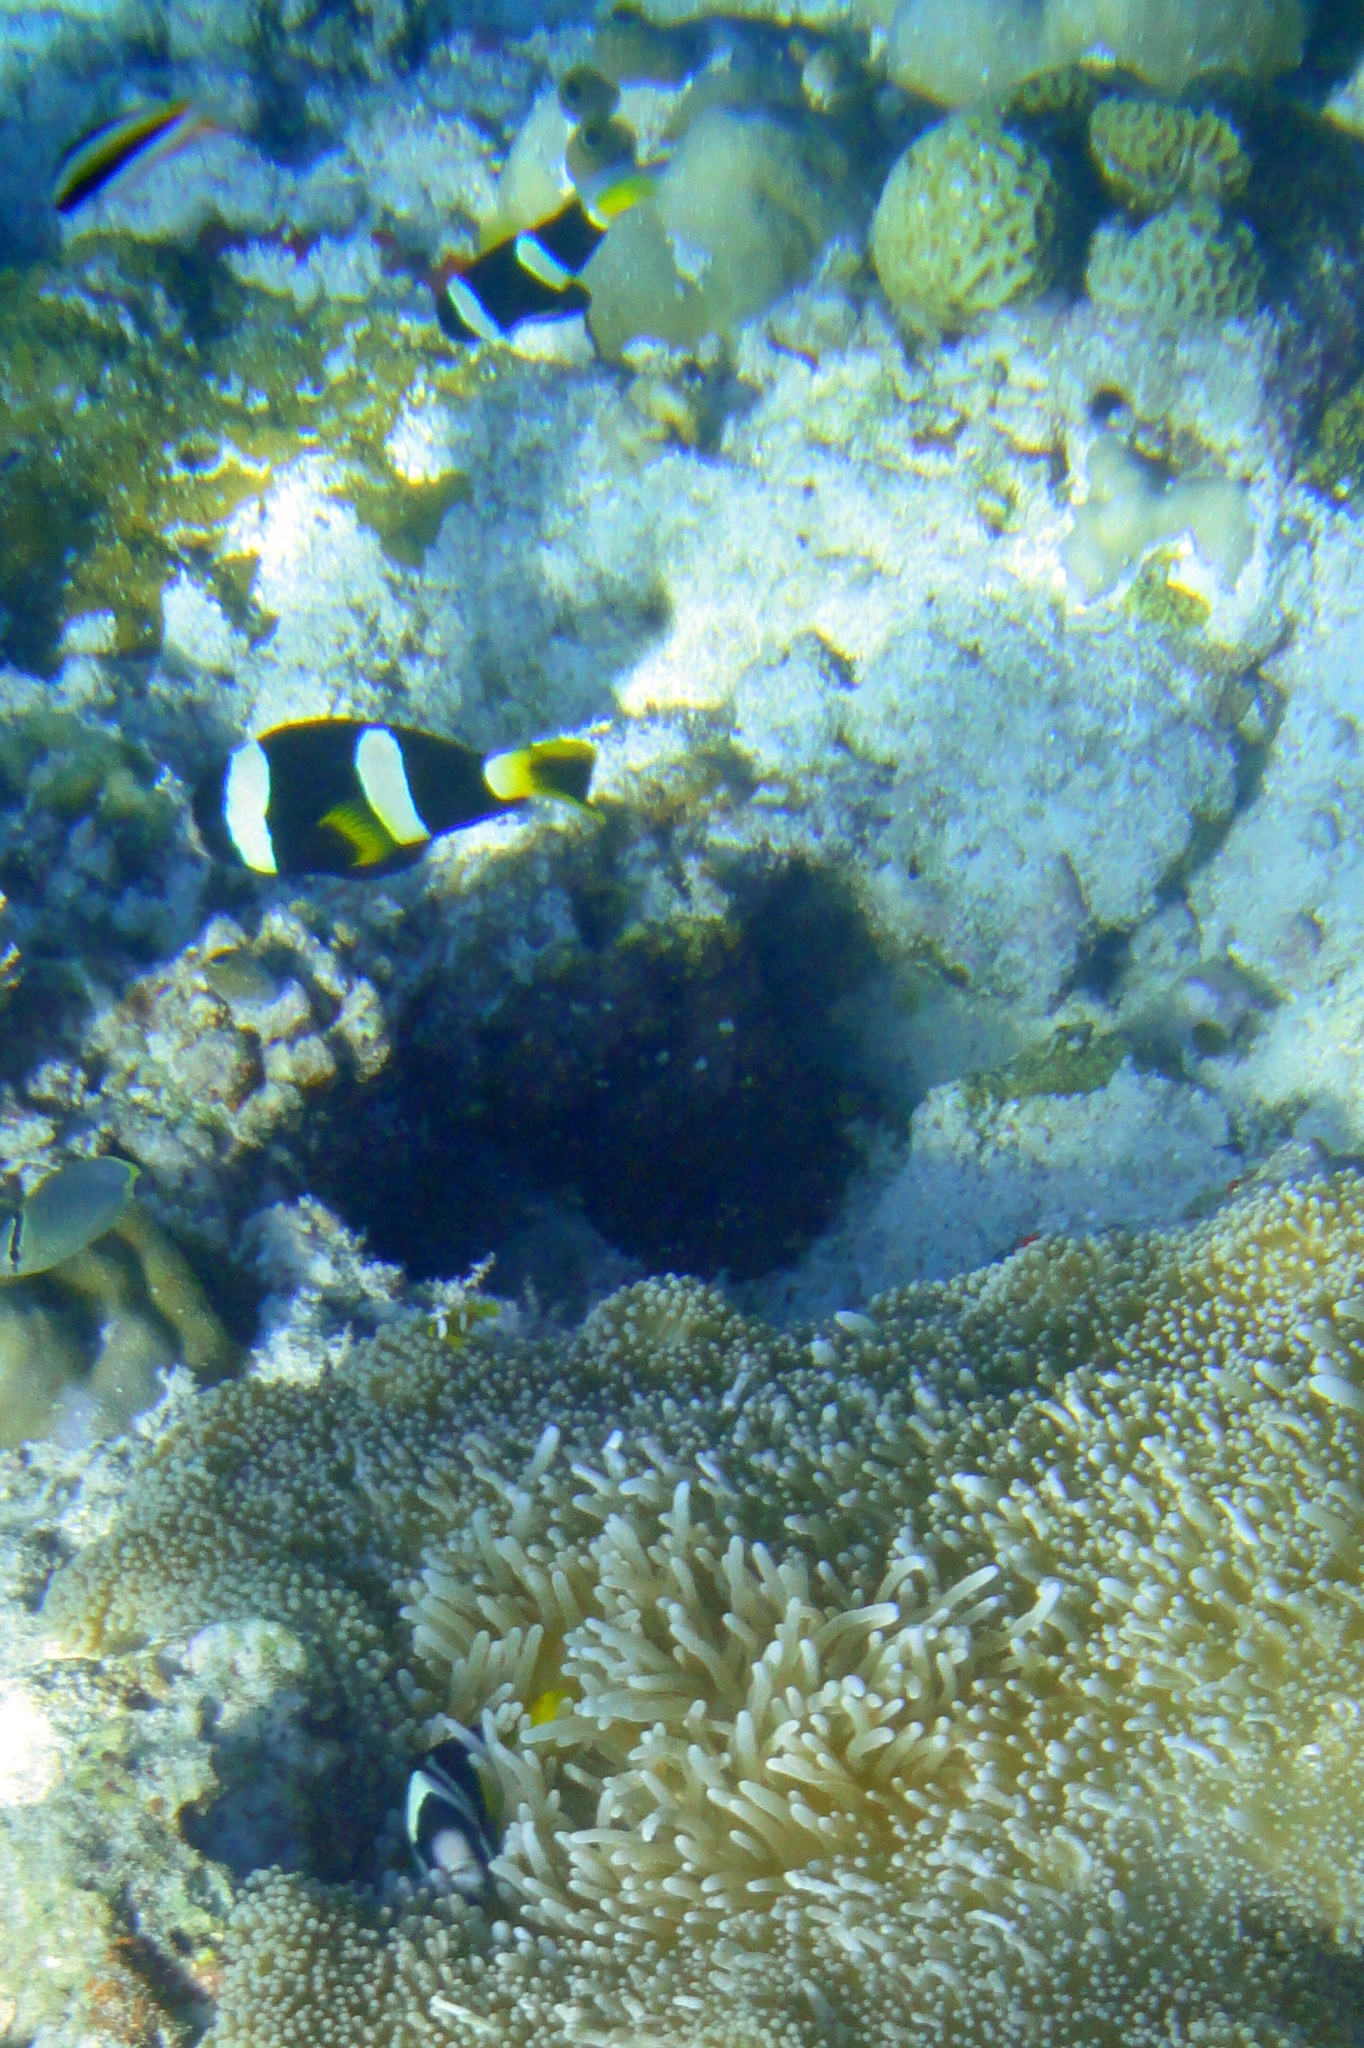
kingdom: Animalia
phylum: Chordata
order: Perciformes
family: Pomacentridae
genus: Amphiprion
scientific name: Amphiprion clarkii
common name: Clark's anemonefish
